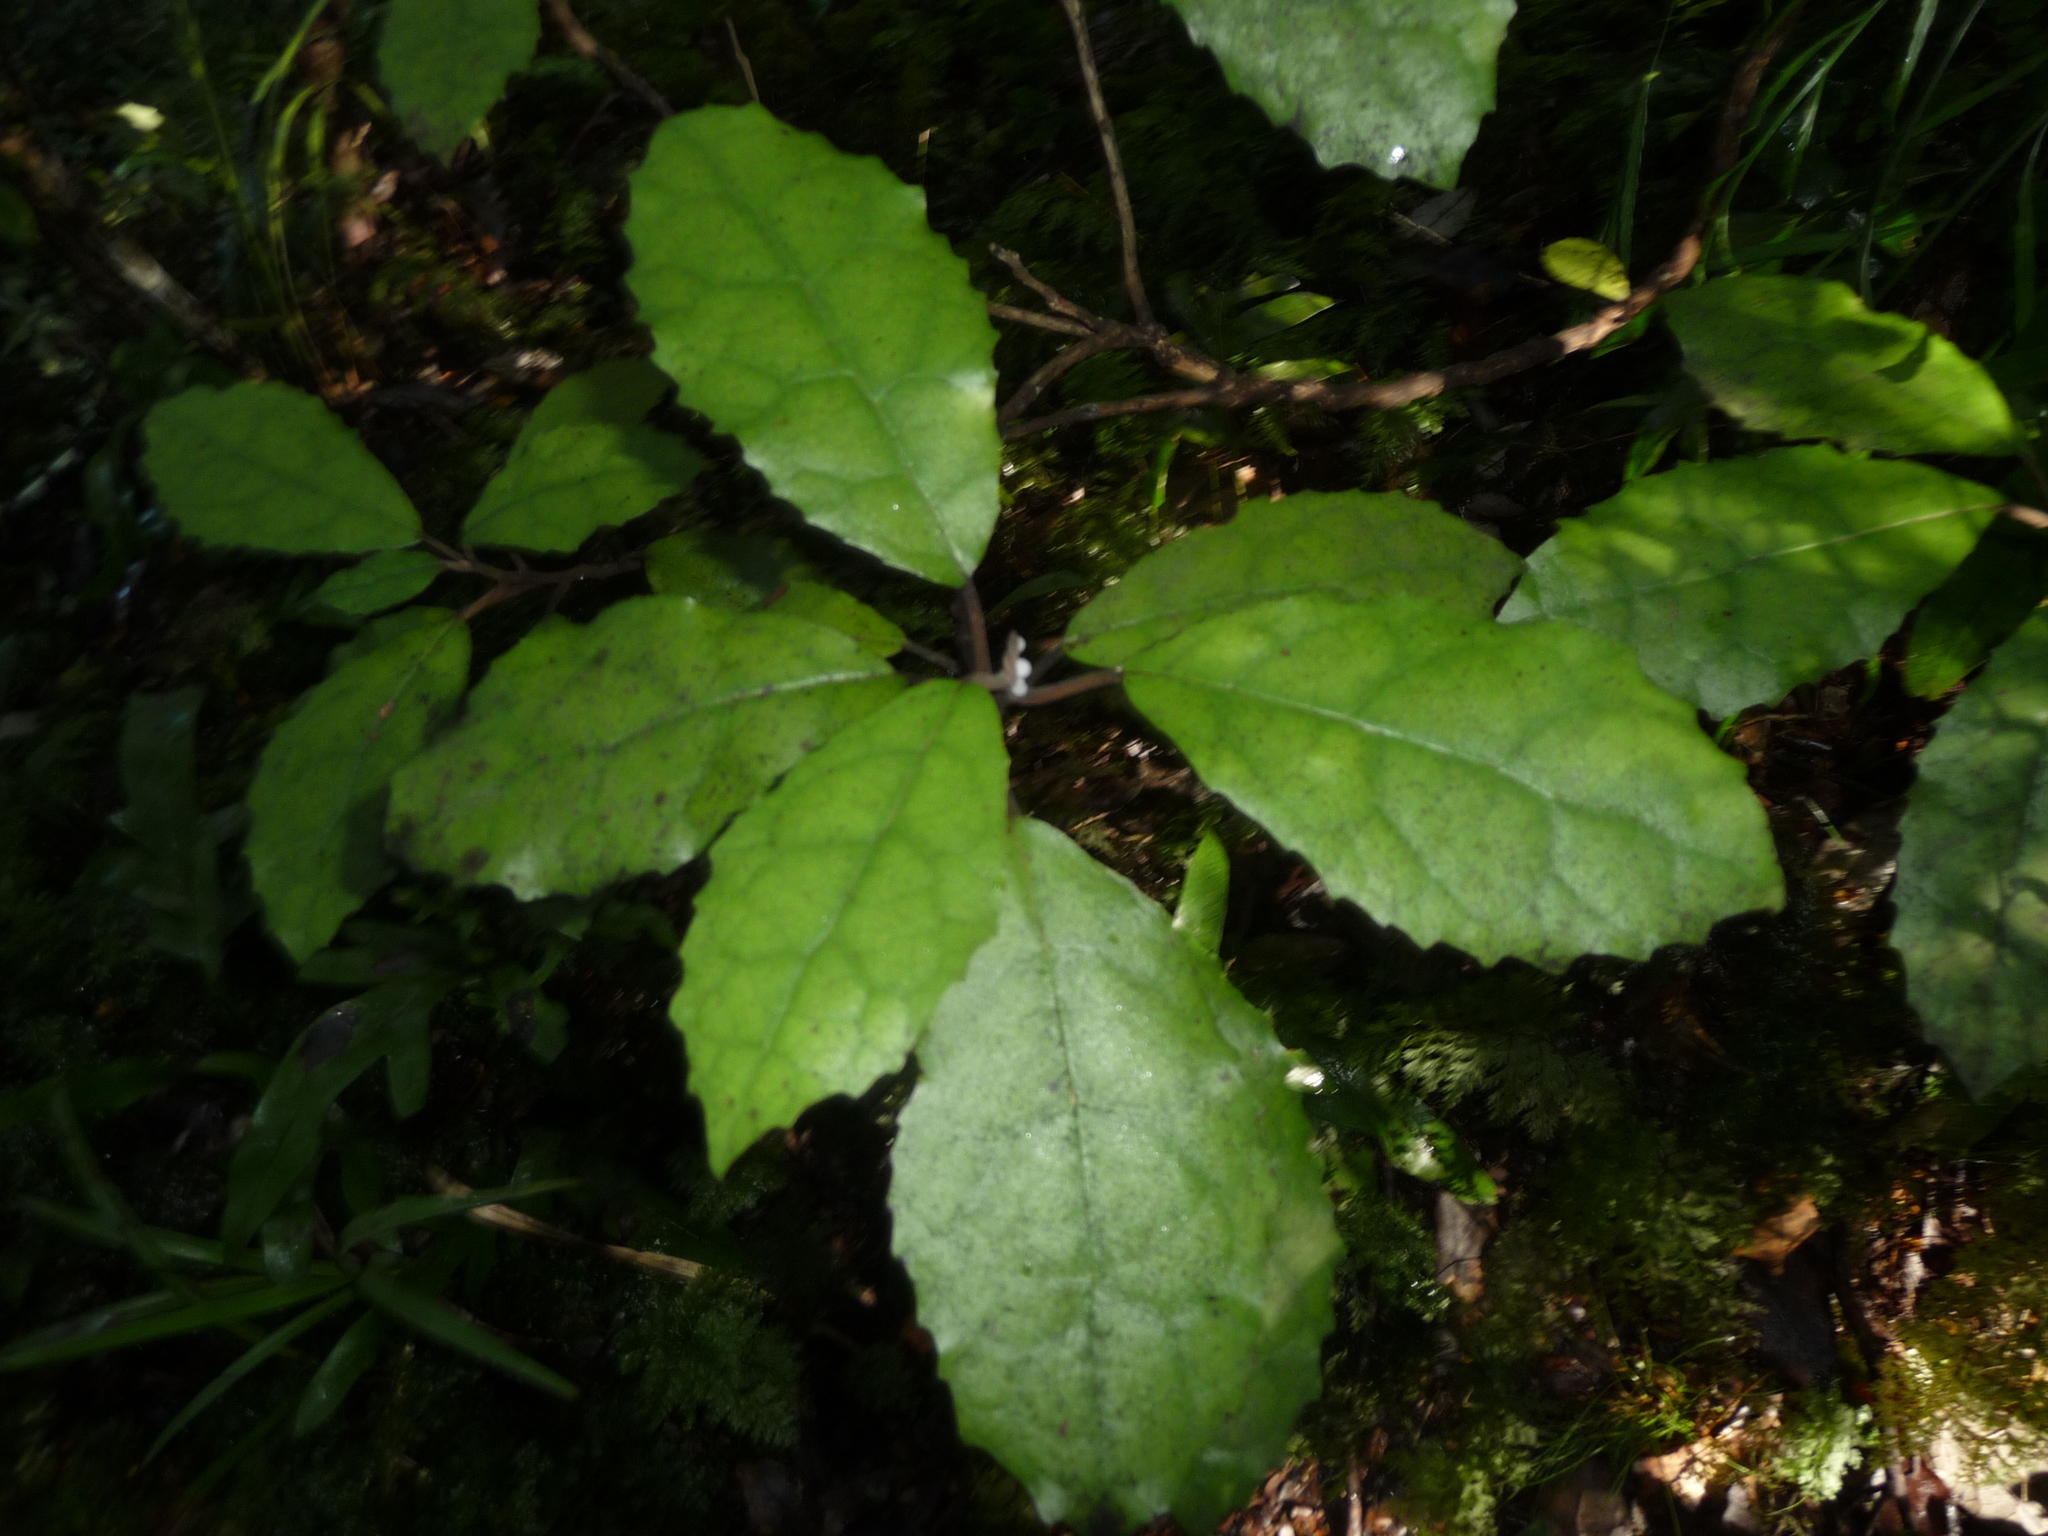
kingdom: Plantae
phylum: Tracheophyta
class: Magnoliopsida
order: Asterales
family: Asteraceae
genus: Olearia
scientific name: Olearia rani
